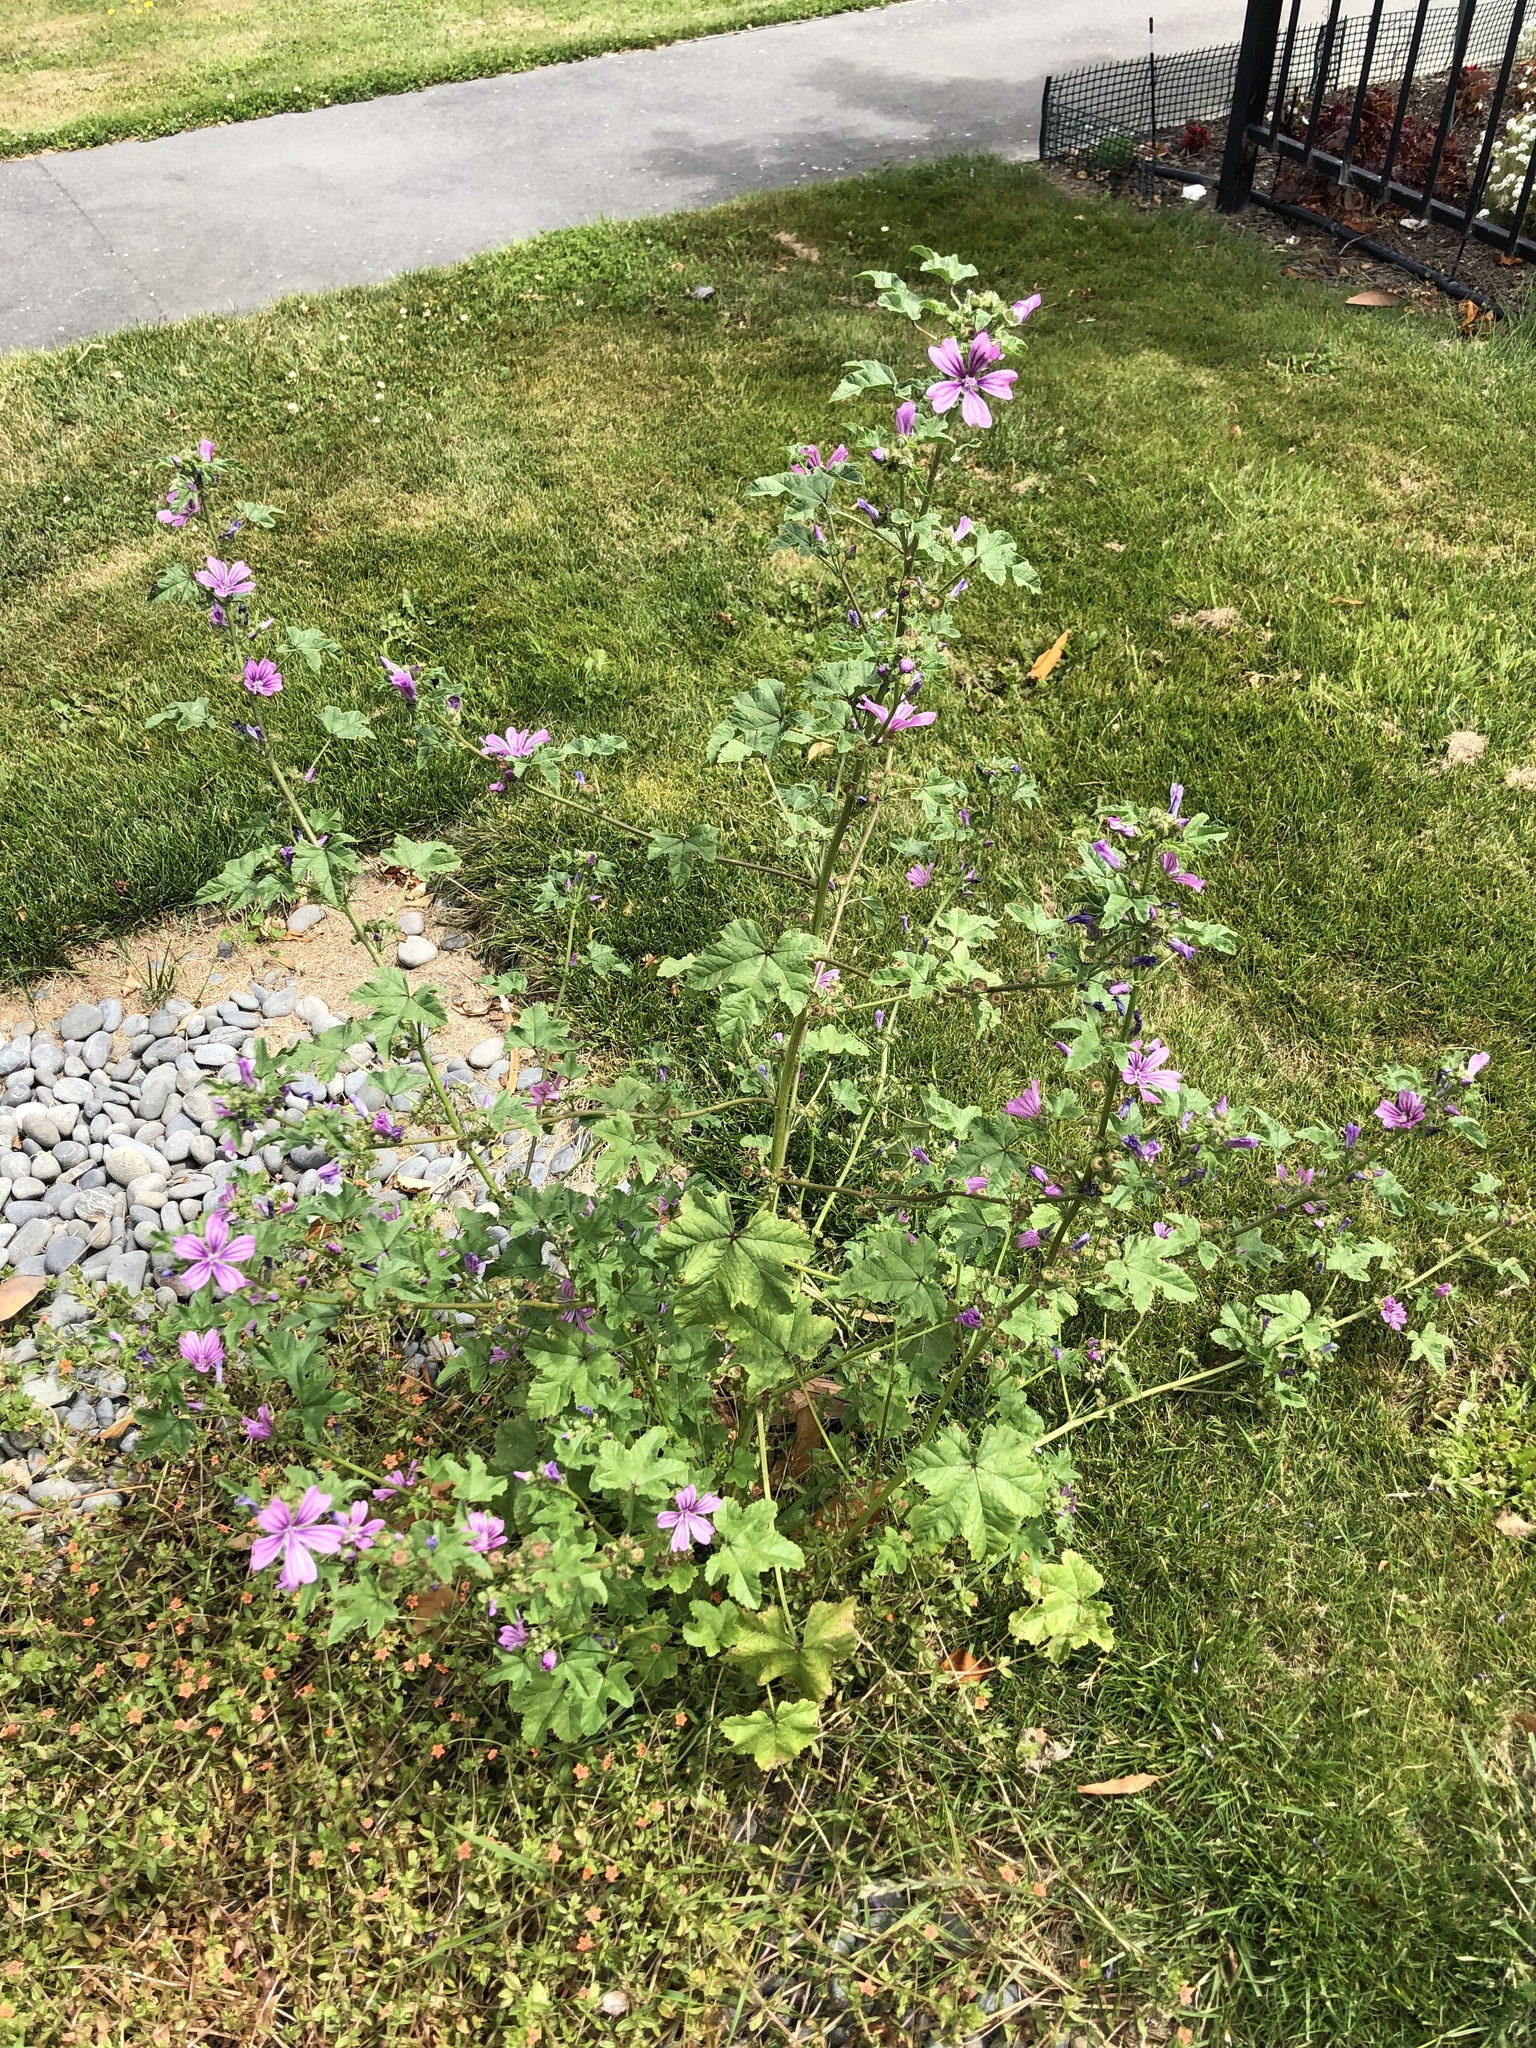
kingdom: Plantae
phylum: Tracheophyta
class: Magnoliopsida
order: Malvales
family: Malvaceae
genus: Malva
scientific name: Malva sylvestris
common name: Common mallow
